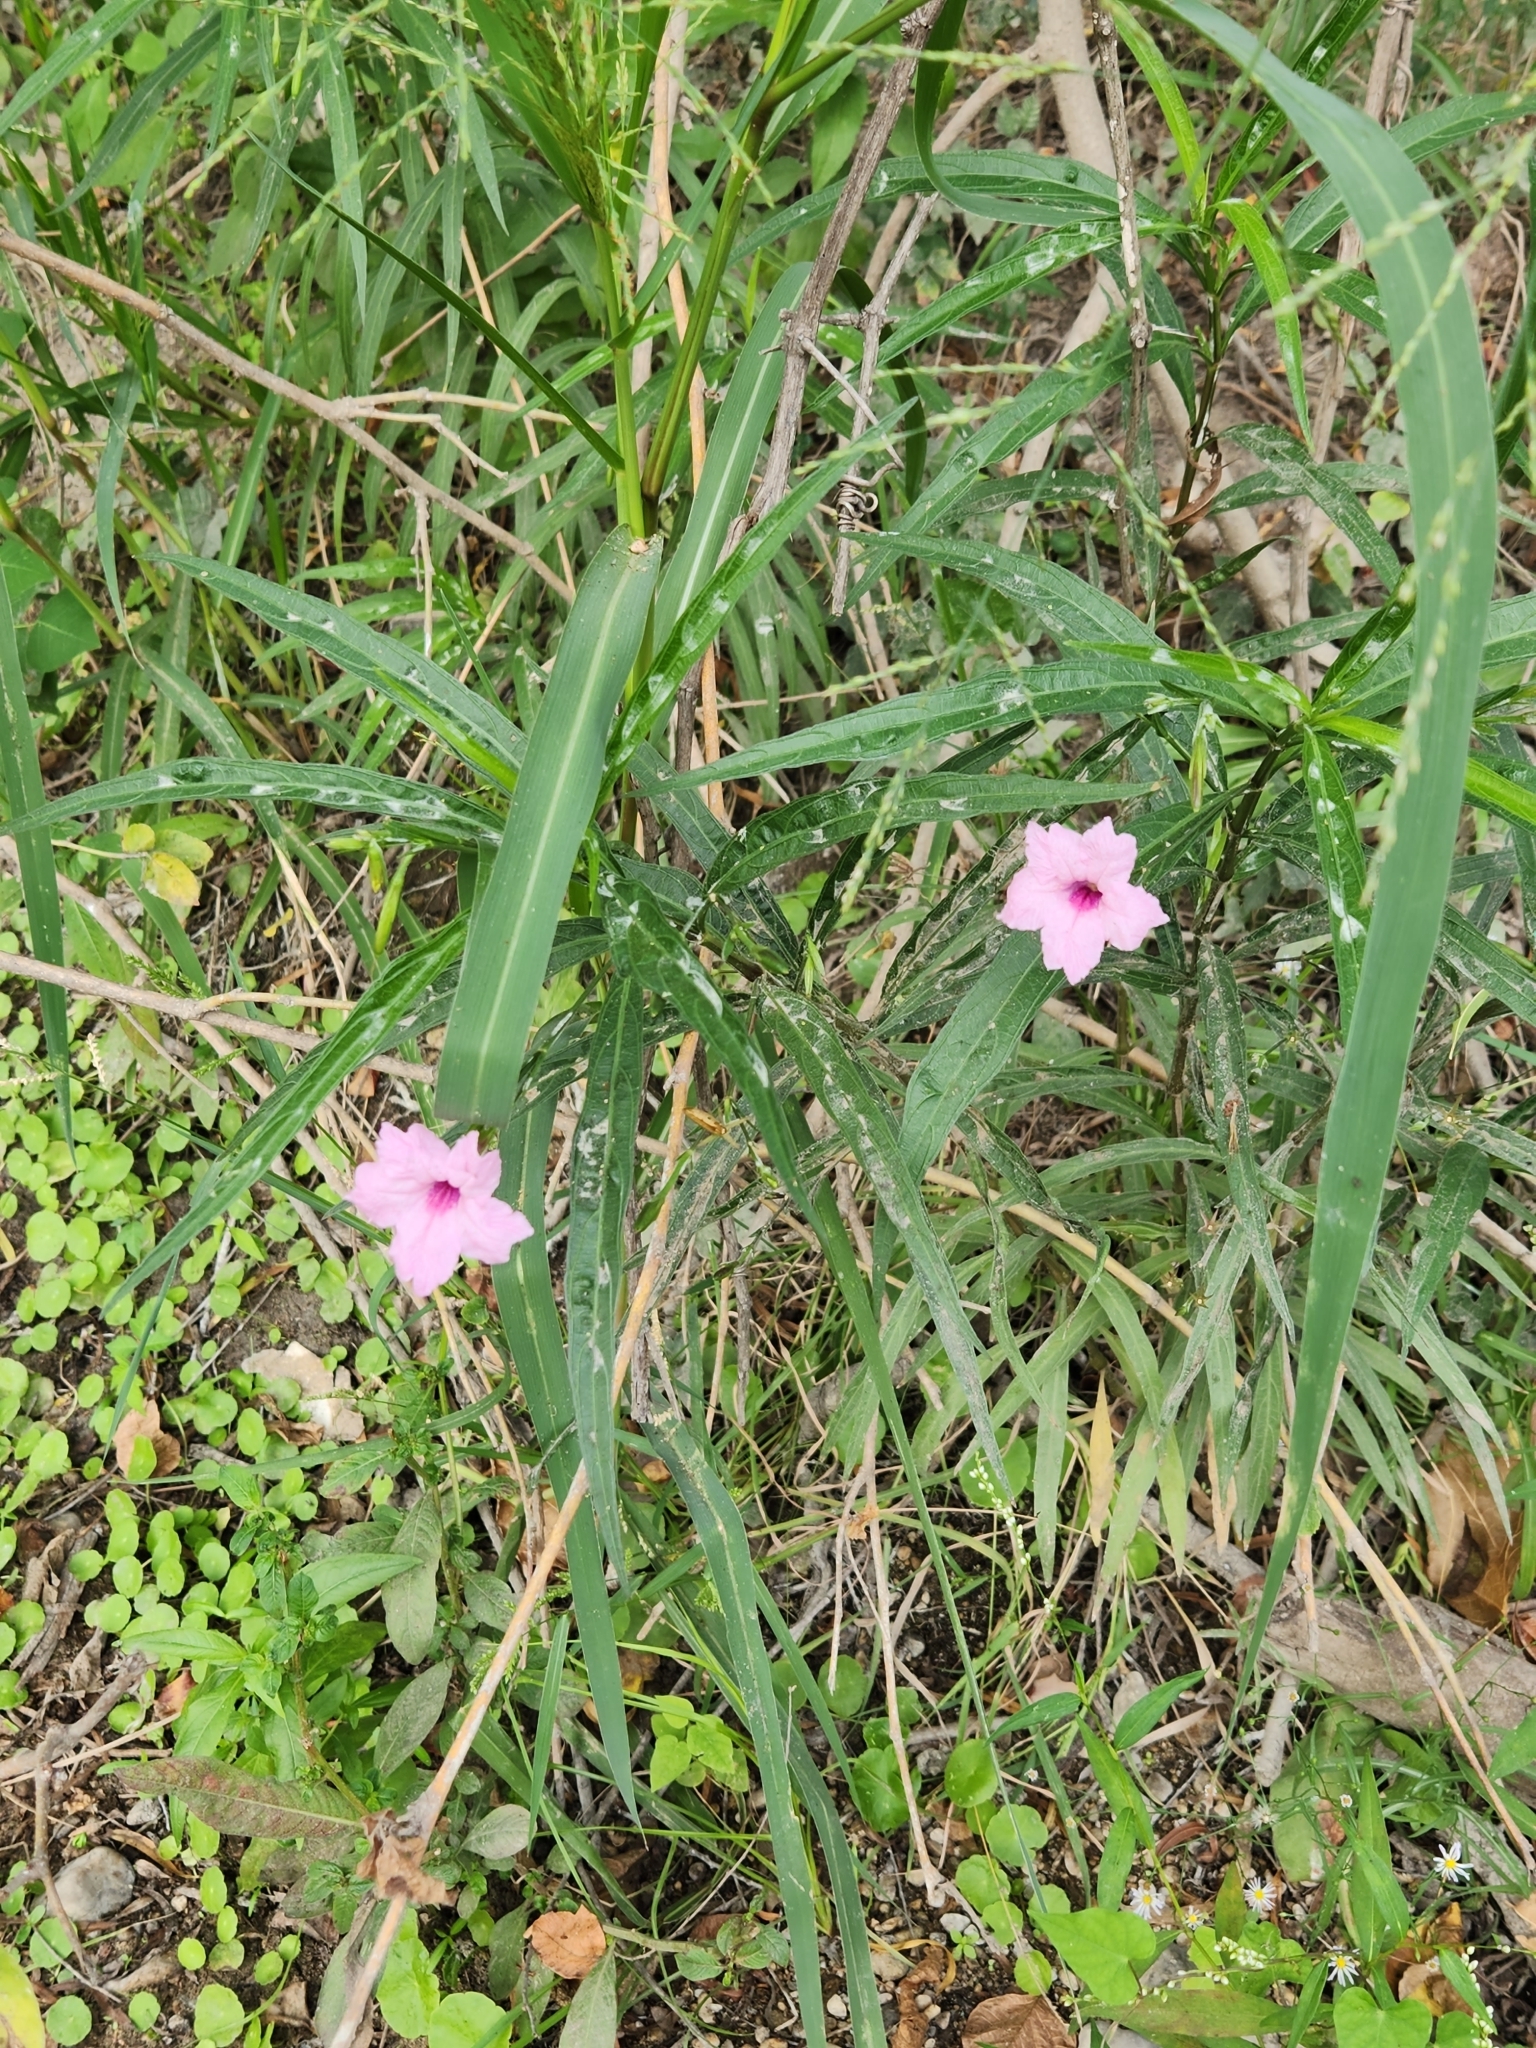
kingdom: Plantae
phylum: Tracheophyta
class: Magnoliopsida
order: Lamiales
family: Acanthaceae
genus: Ruellia
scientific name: Ruellia simplex
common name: Softseed wild petunia
